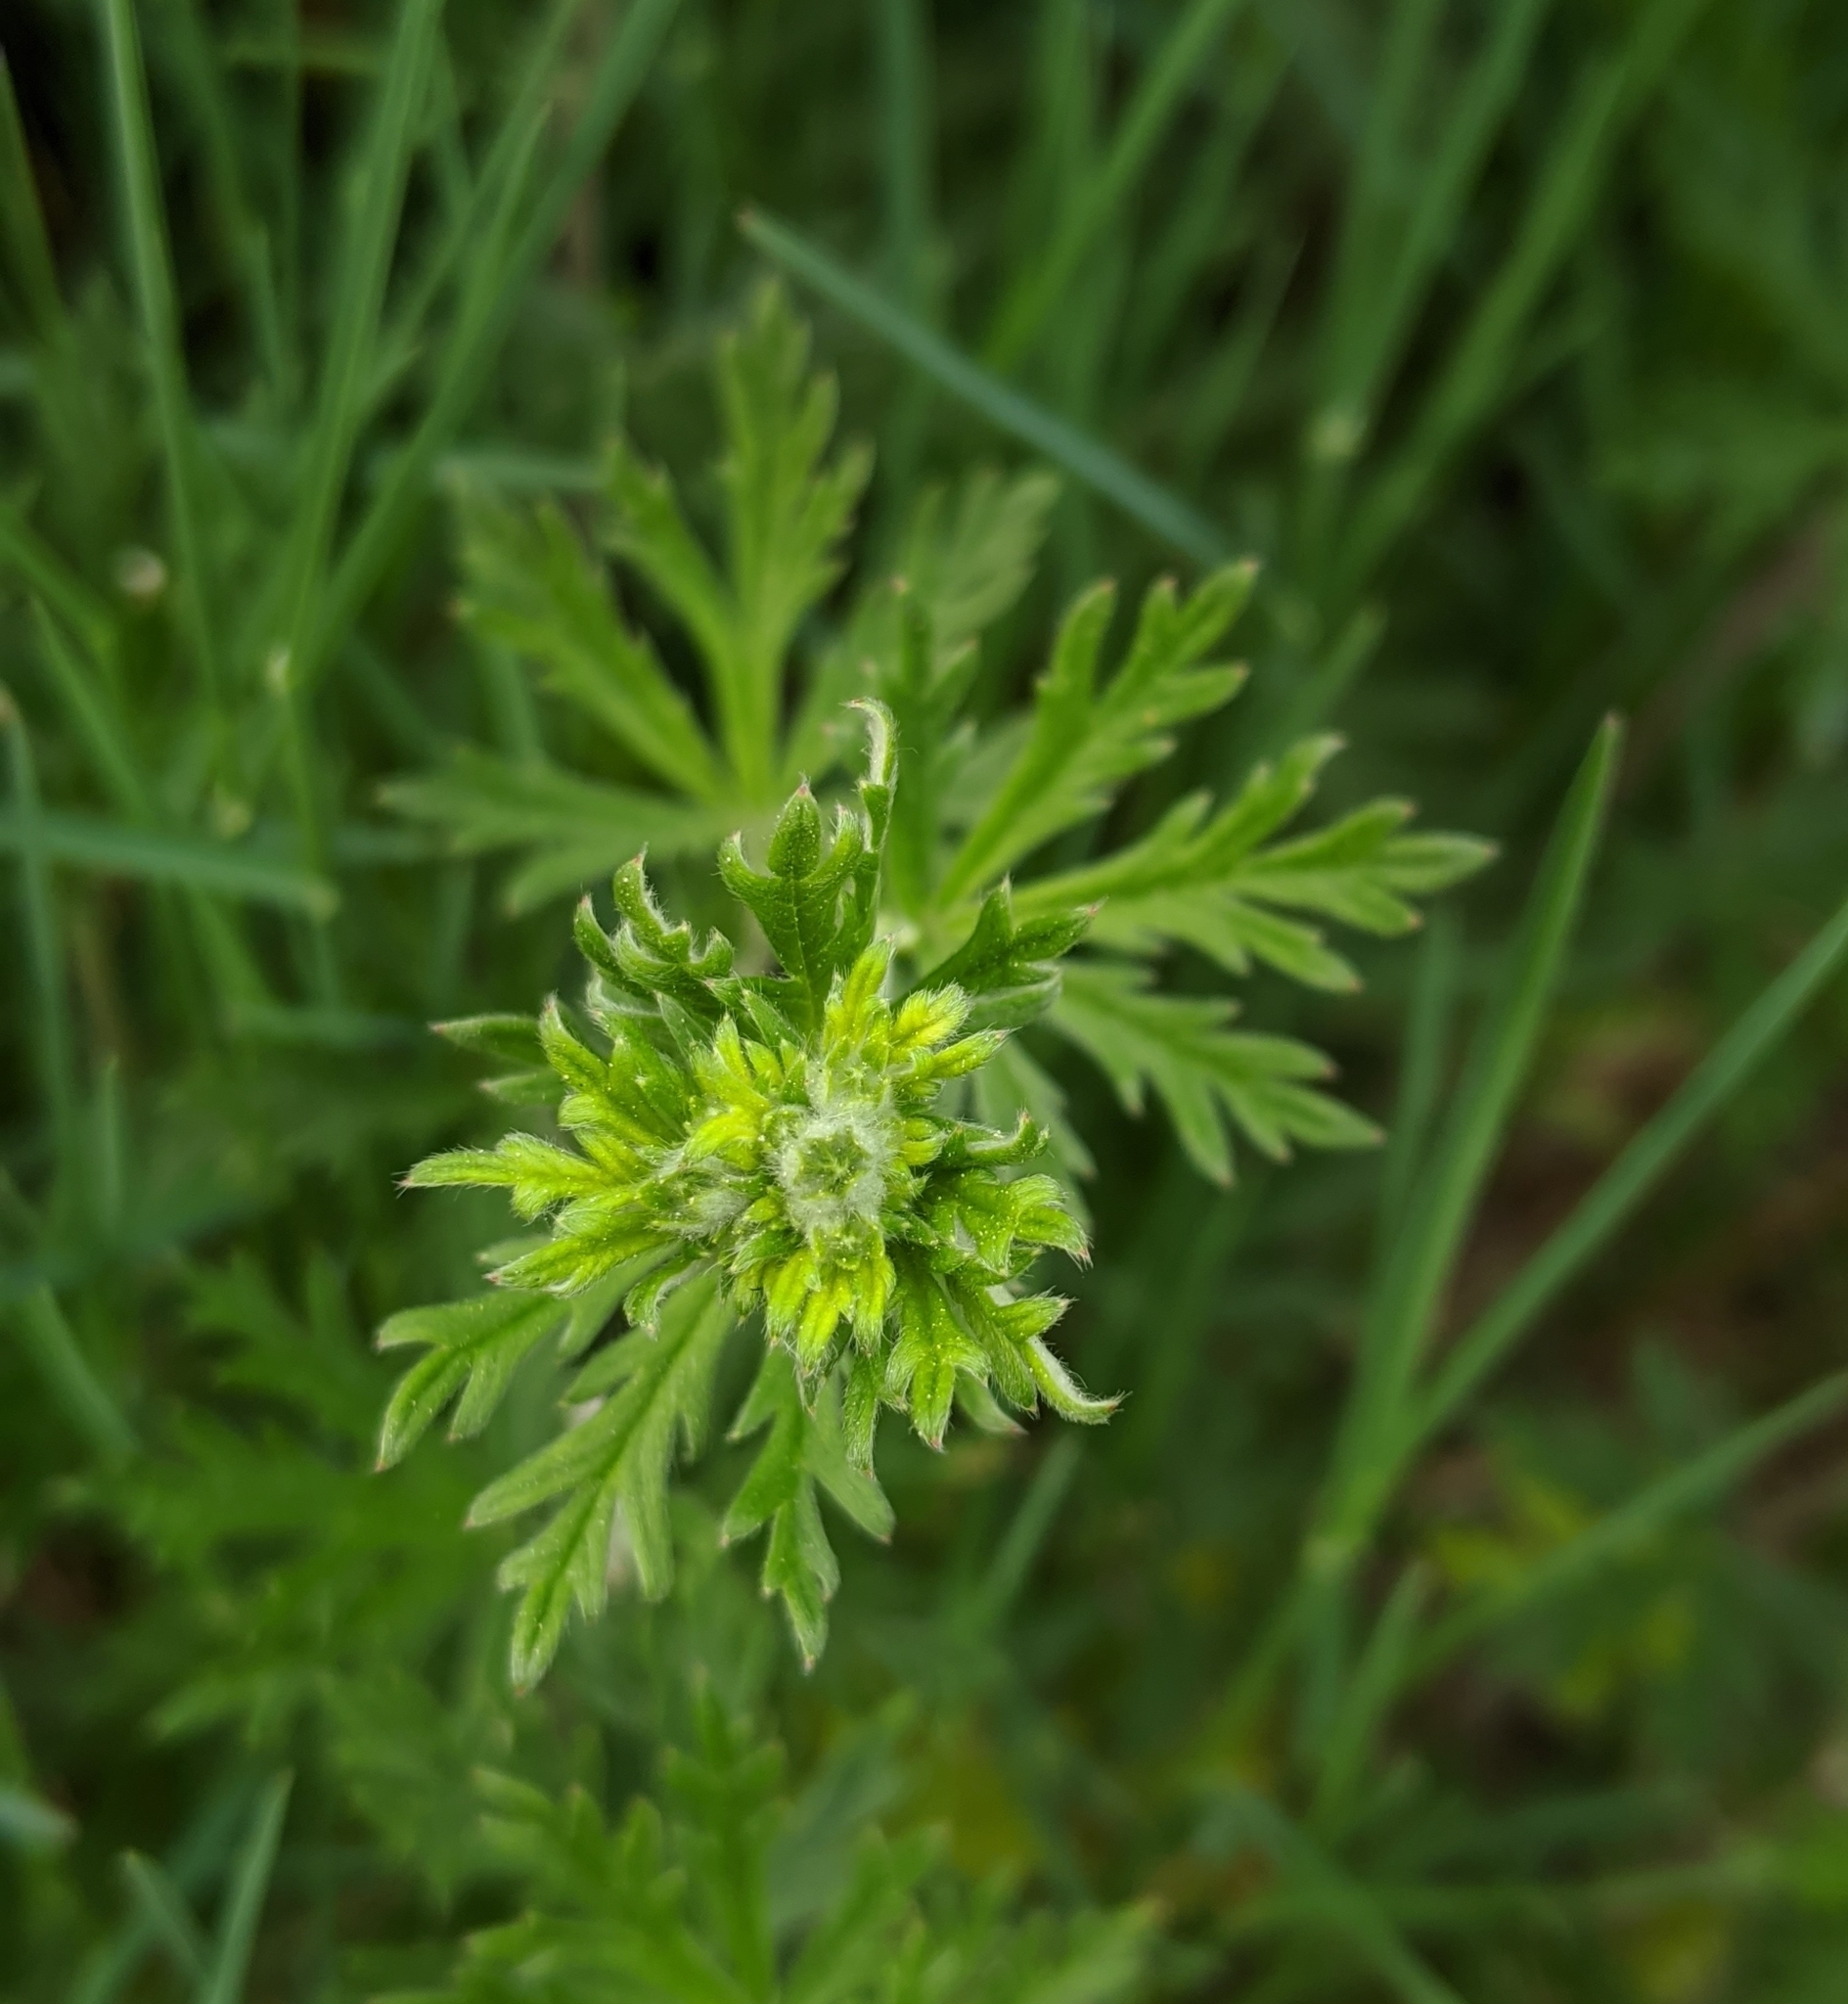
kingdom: Plantae
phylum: Tracheophyta
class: Magnoliopsida
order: Rosales
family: Rosaceae
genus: Potentilla
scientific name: Potentilla argentea
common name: Hoary cinquefoil
